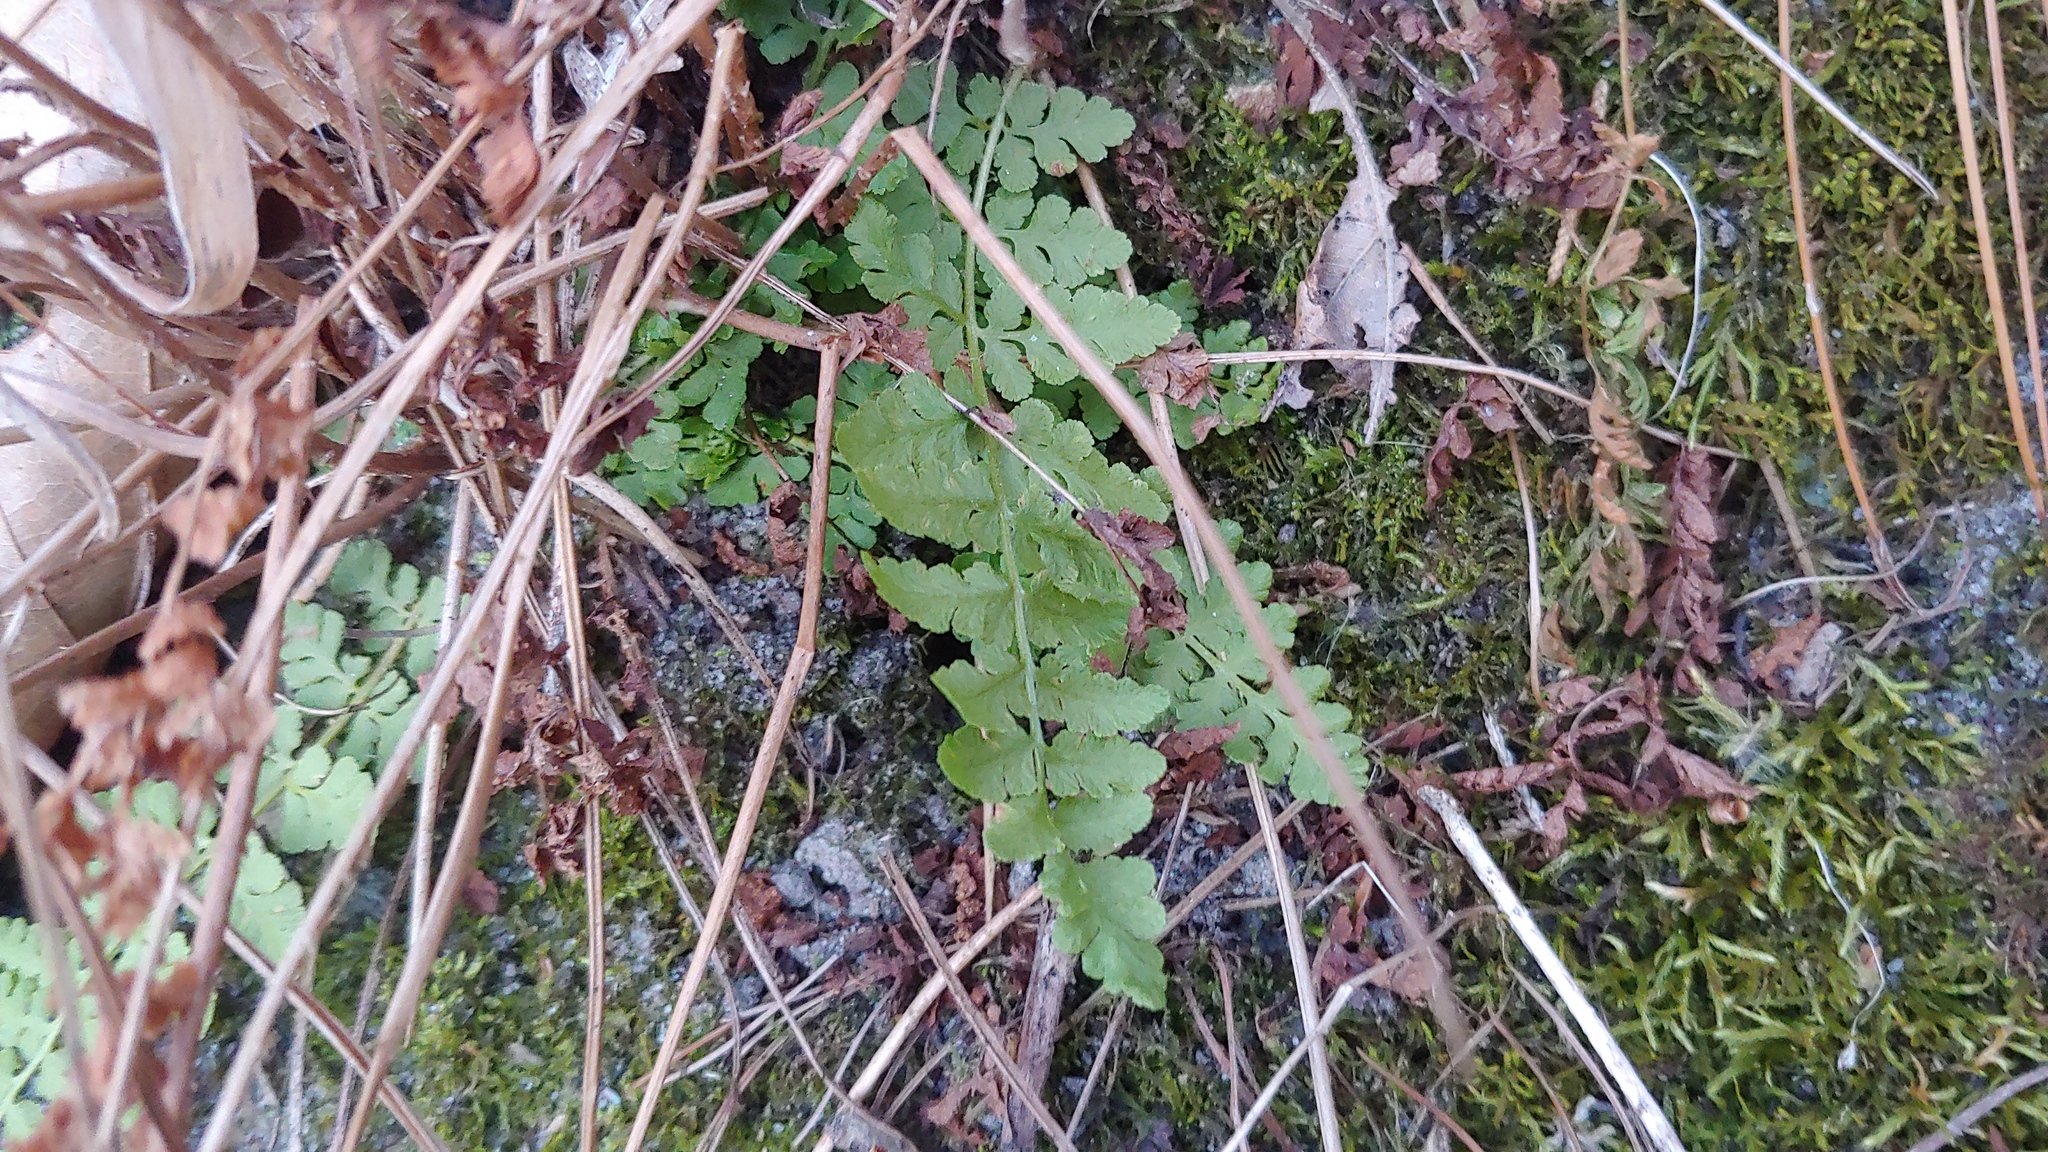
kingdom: Plantae
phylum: Tracheophyta
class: Polypodiopsida
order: Polypodiales
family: Woodsiaceae
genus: Physematium
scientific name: Physematium obtusum
